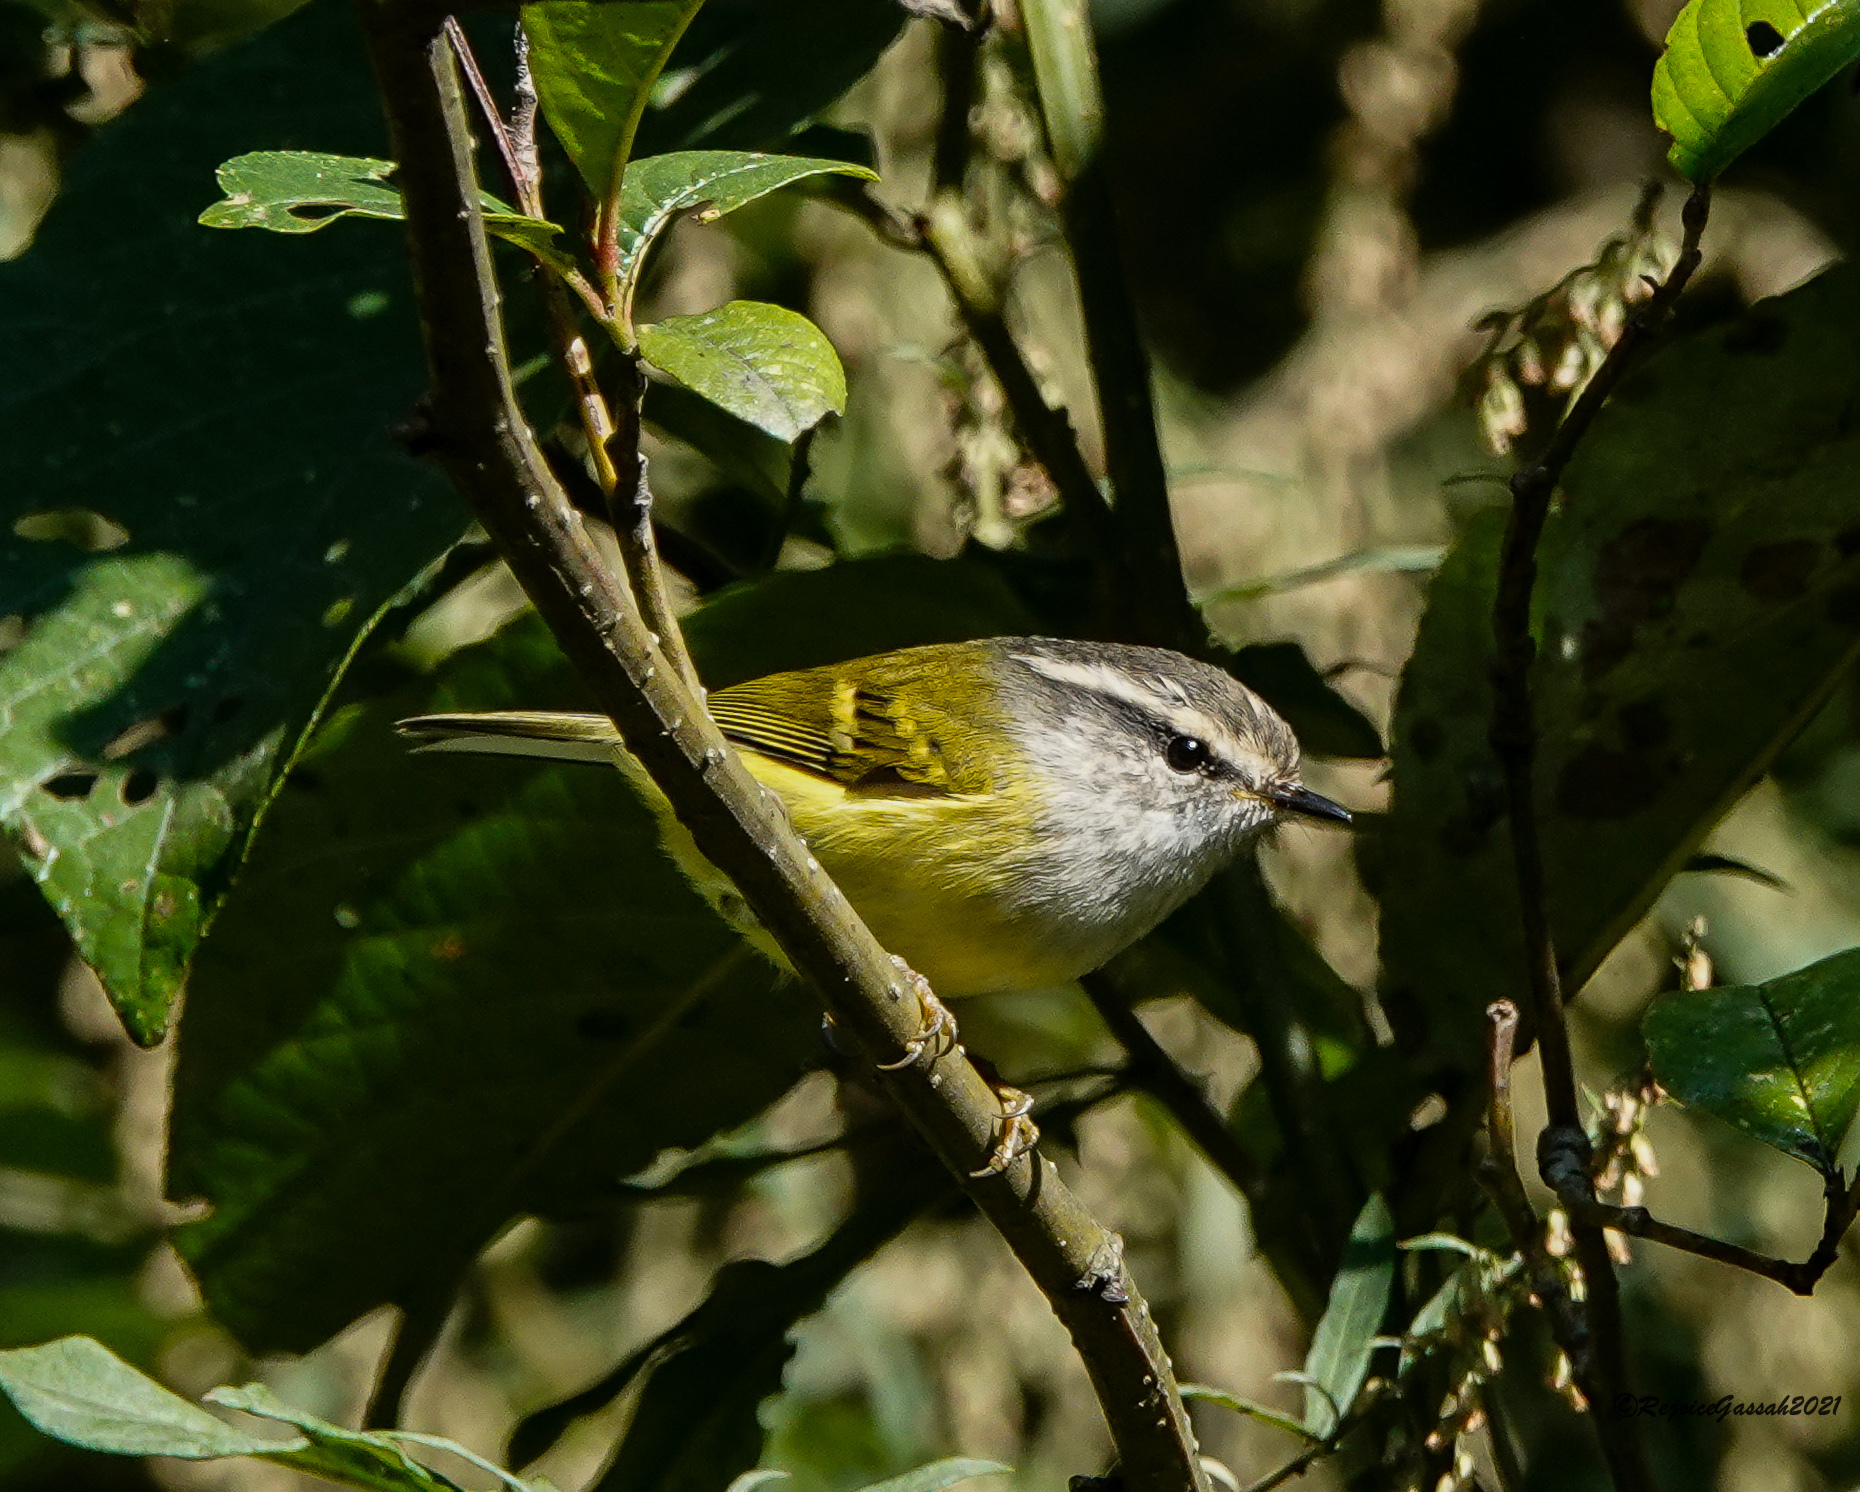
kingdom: Animalia
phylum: Chordata
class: Aves
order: Passeriformes
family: Phylloscopidae
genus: Phylloscopus
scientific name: Phylloscopus maculipennis
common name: Ashy-throated warbler
